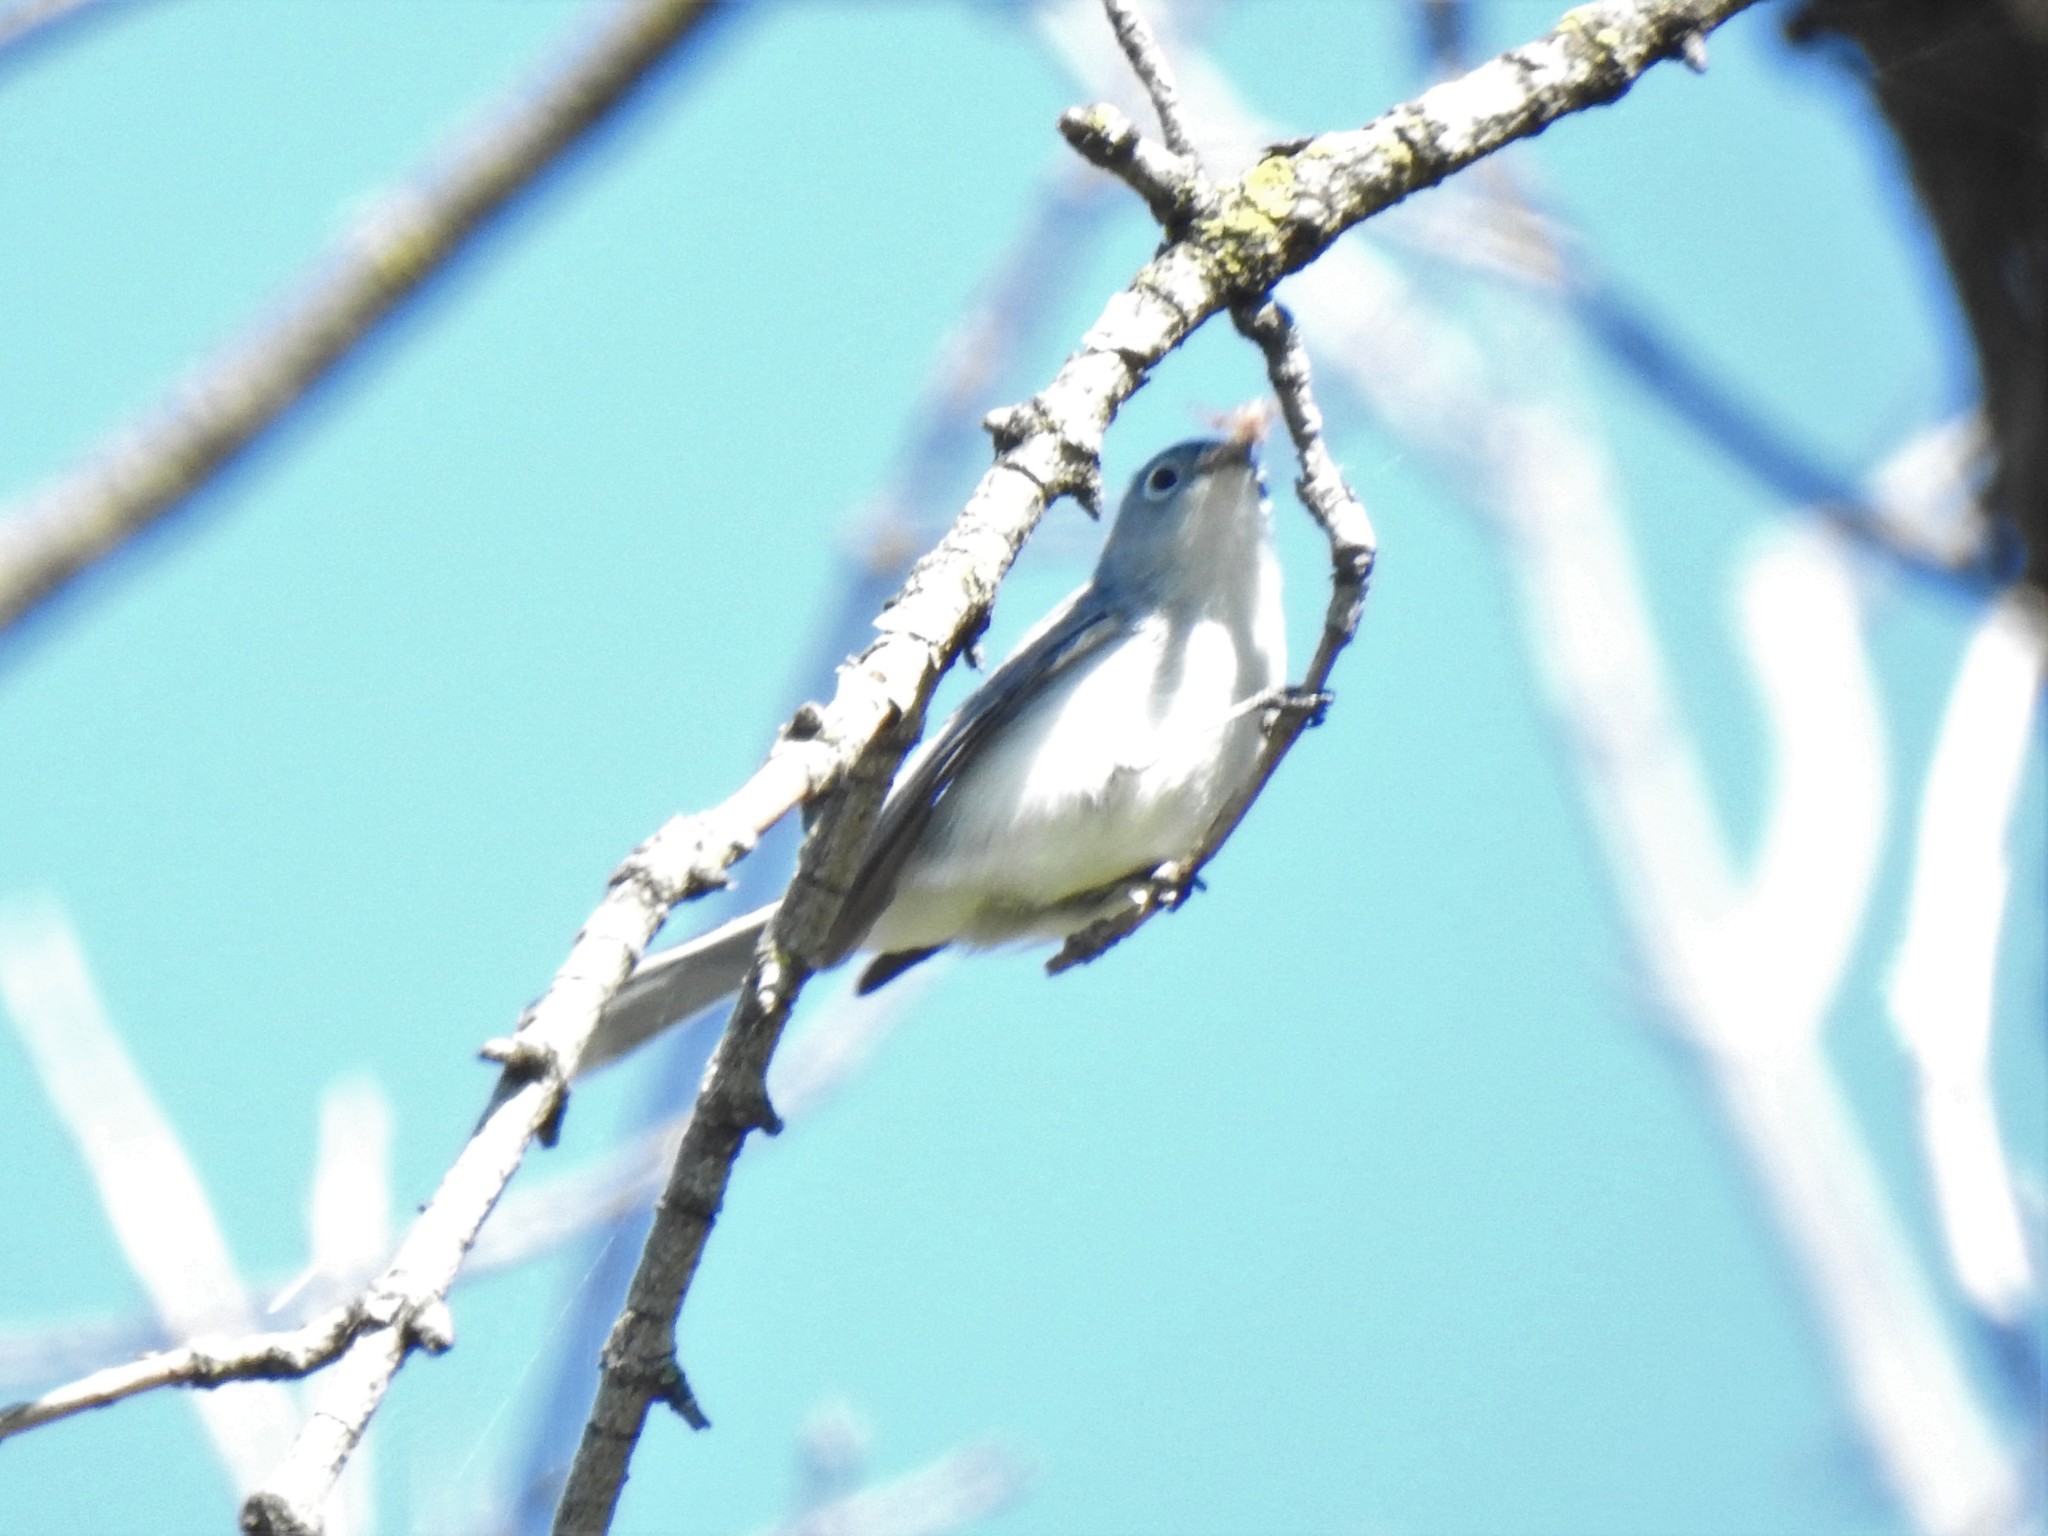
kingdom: Animalia
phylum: Chordata
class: Aves
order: Passeriformes
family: Polioptilidae
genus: Polioptila
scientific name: Polioptila caerulea
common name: Blue-gray gnatcatcher
